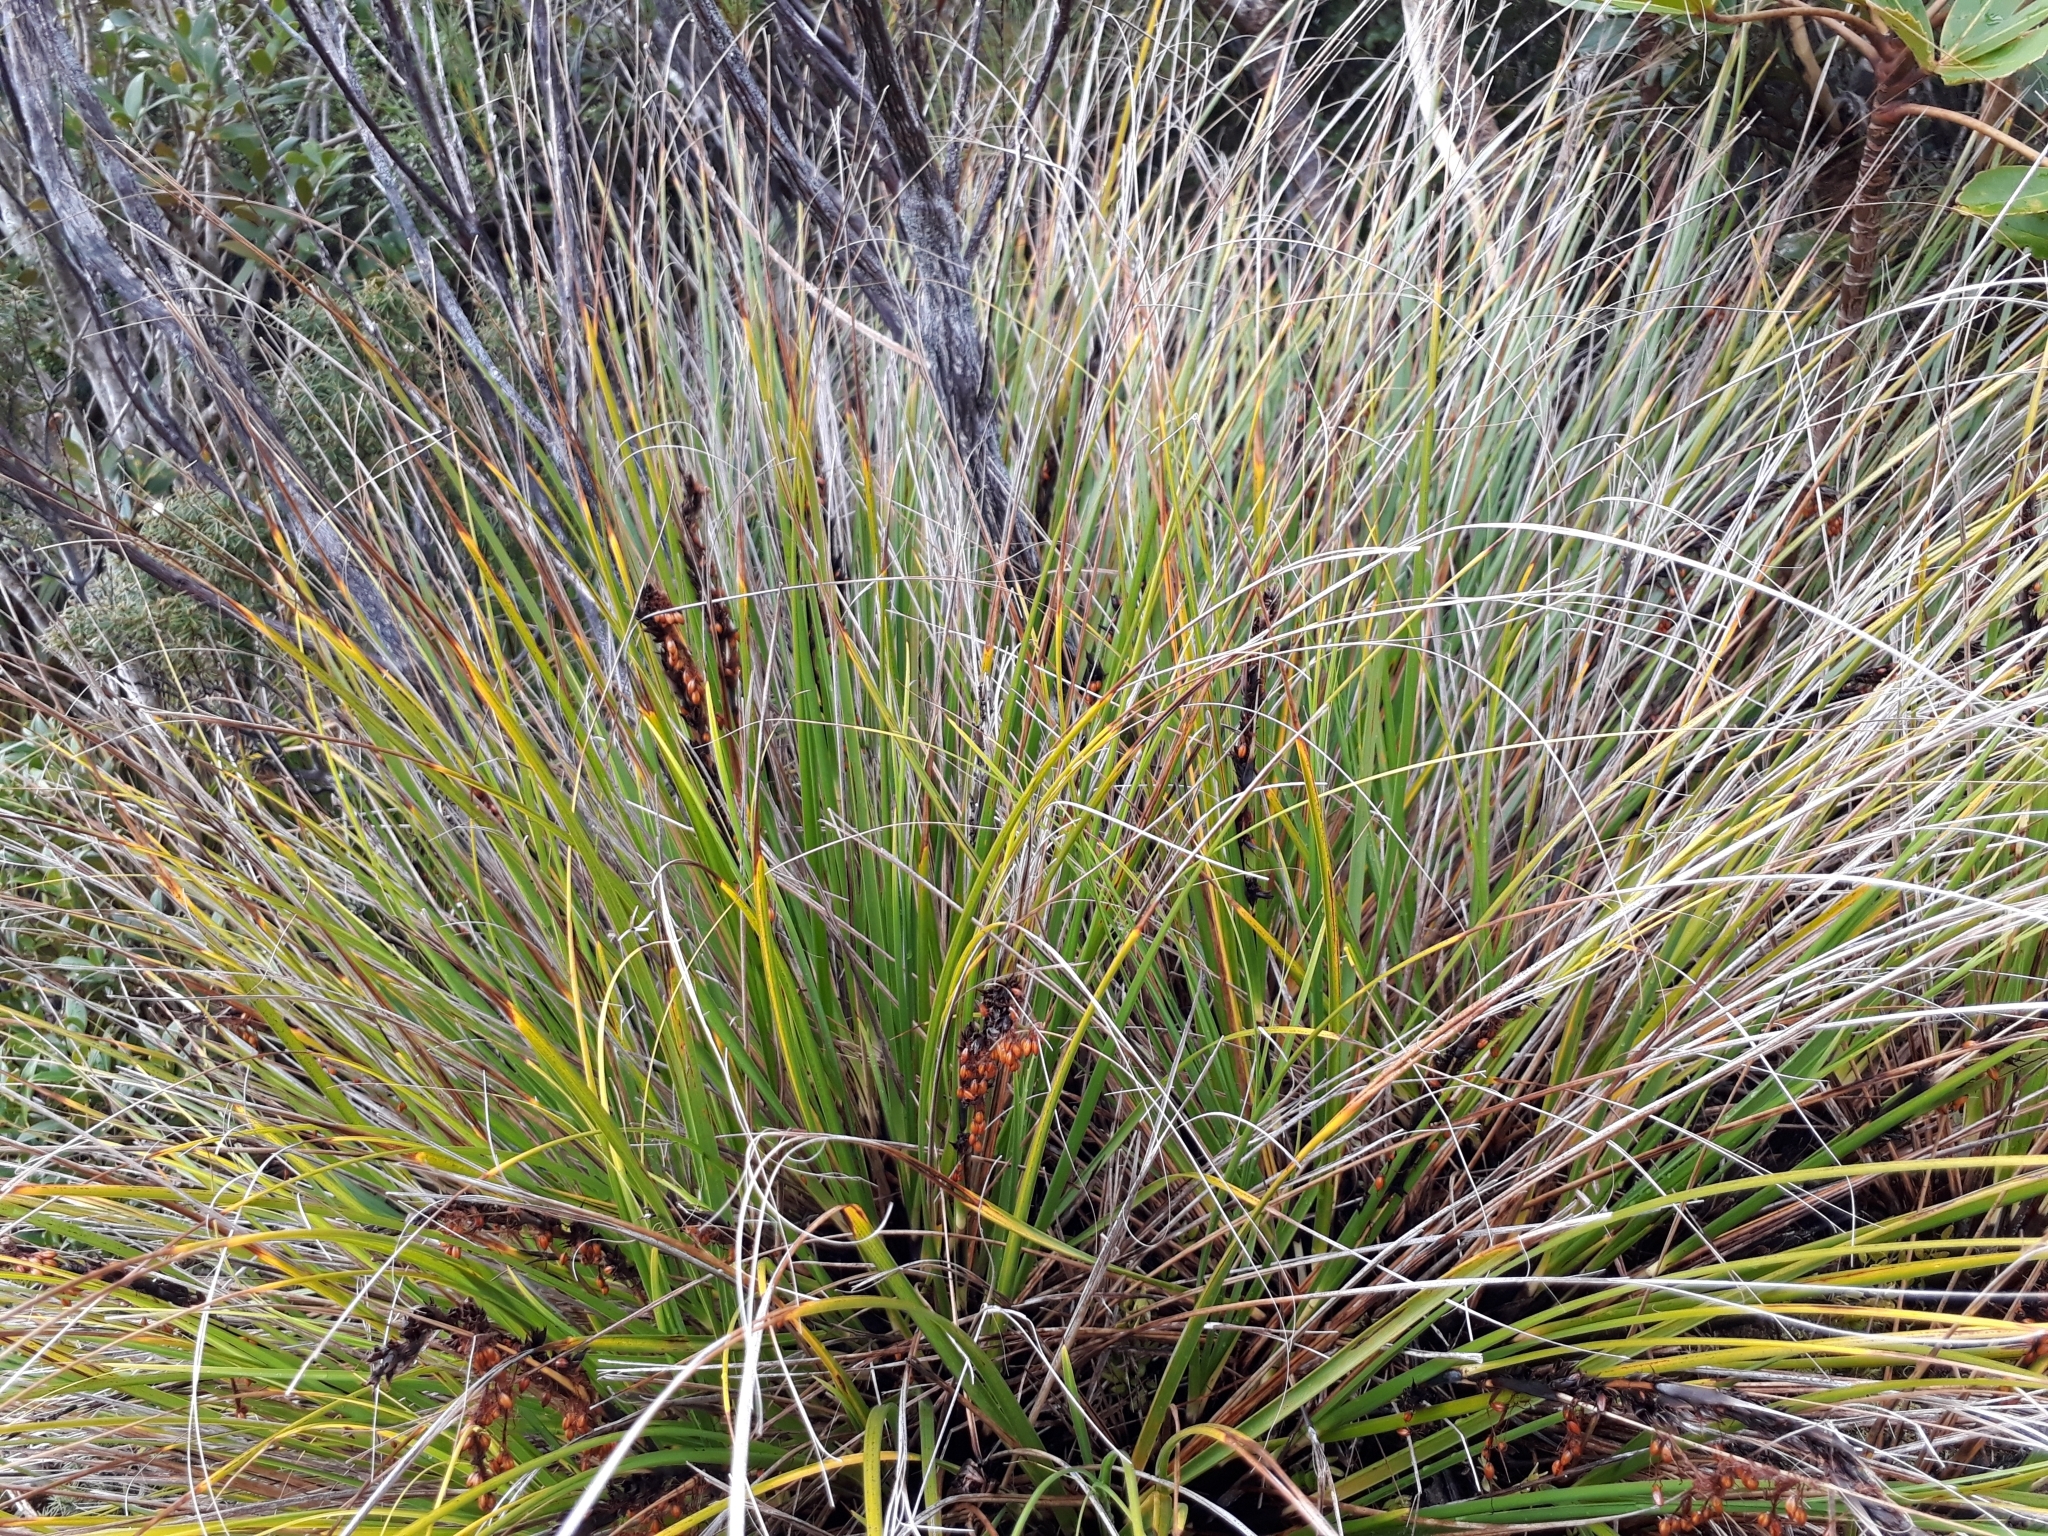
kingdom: Plantae
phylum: Tracheophyta
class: Liliopsida
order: Poales
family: Cyperaceae
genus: Gahnia
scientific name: Gahnia procera
